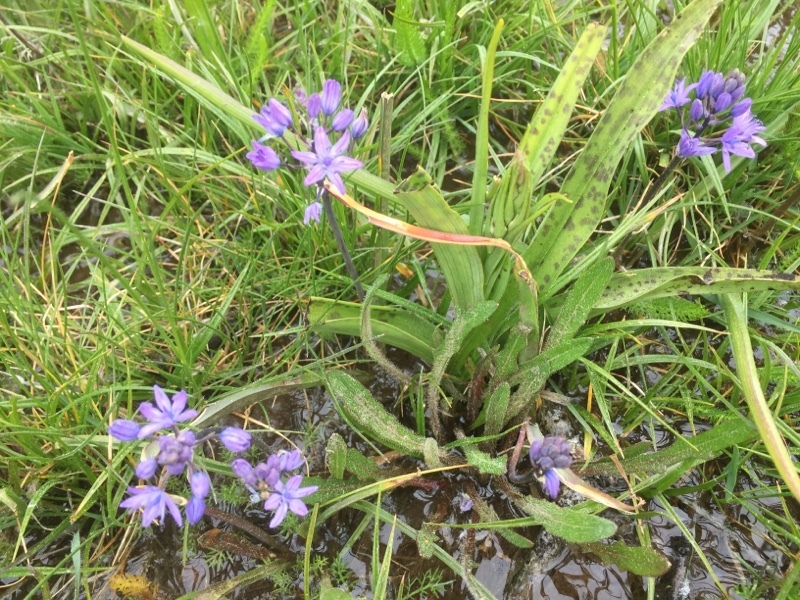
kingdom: Plantae
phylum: Tracheophyta
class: Liliopsida
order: Asparagales
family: Asparagaceae
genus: Scilla
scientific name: Scilla verna
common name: Spring squill
